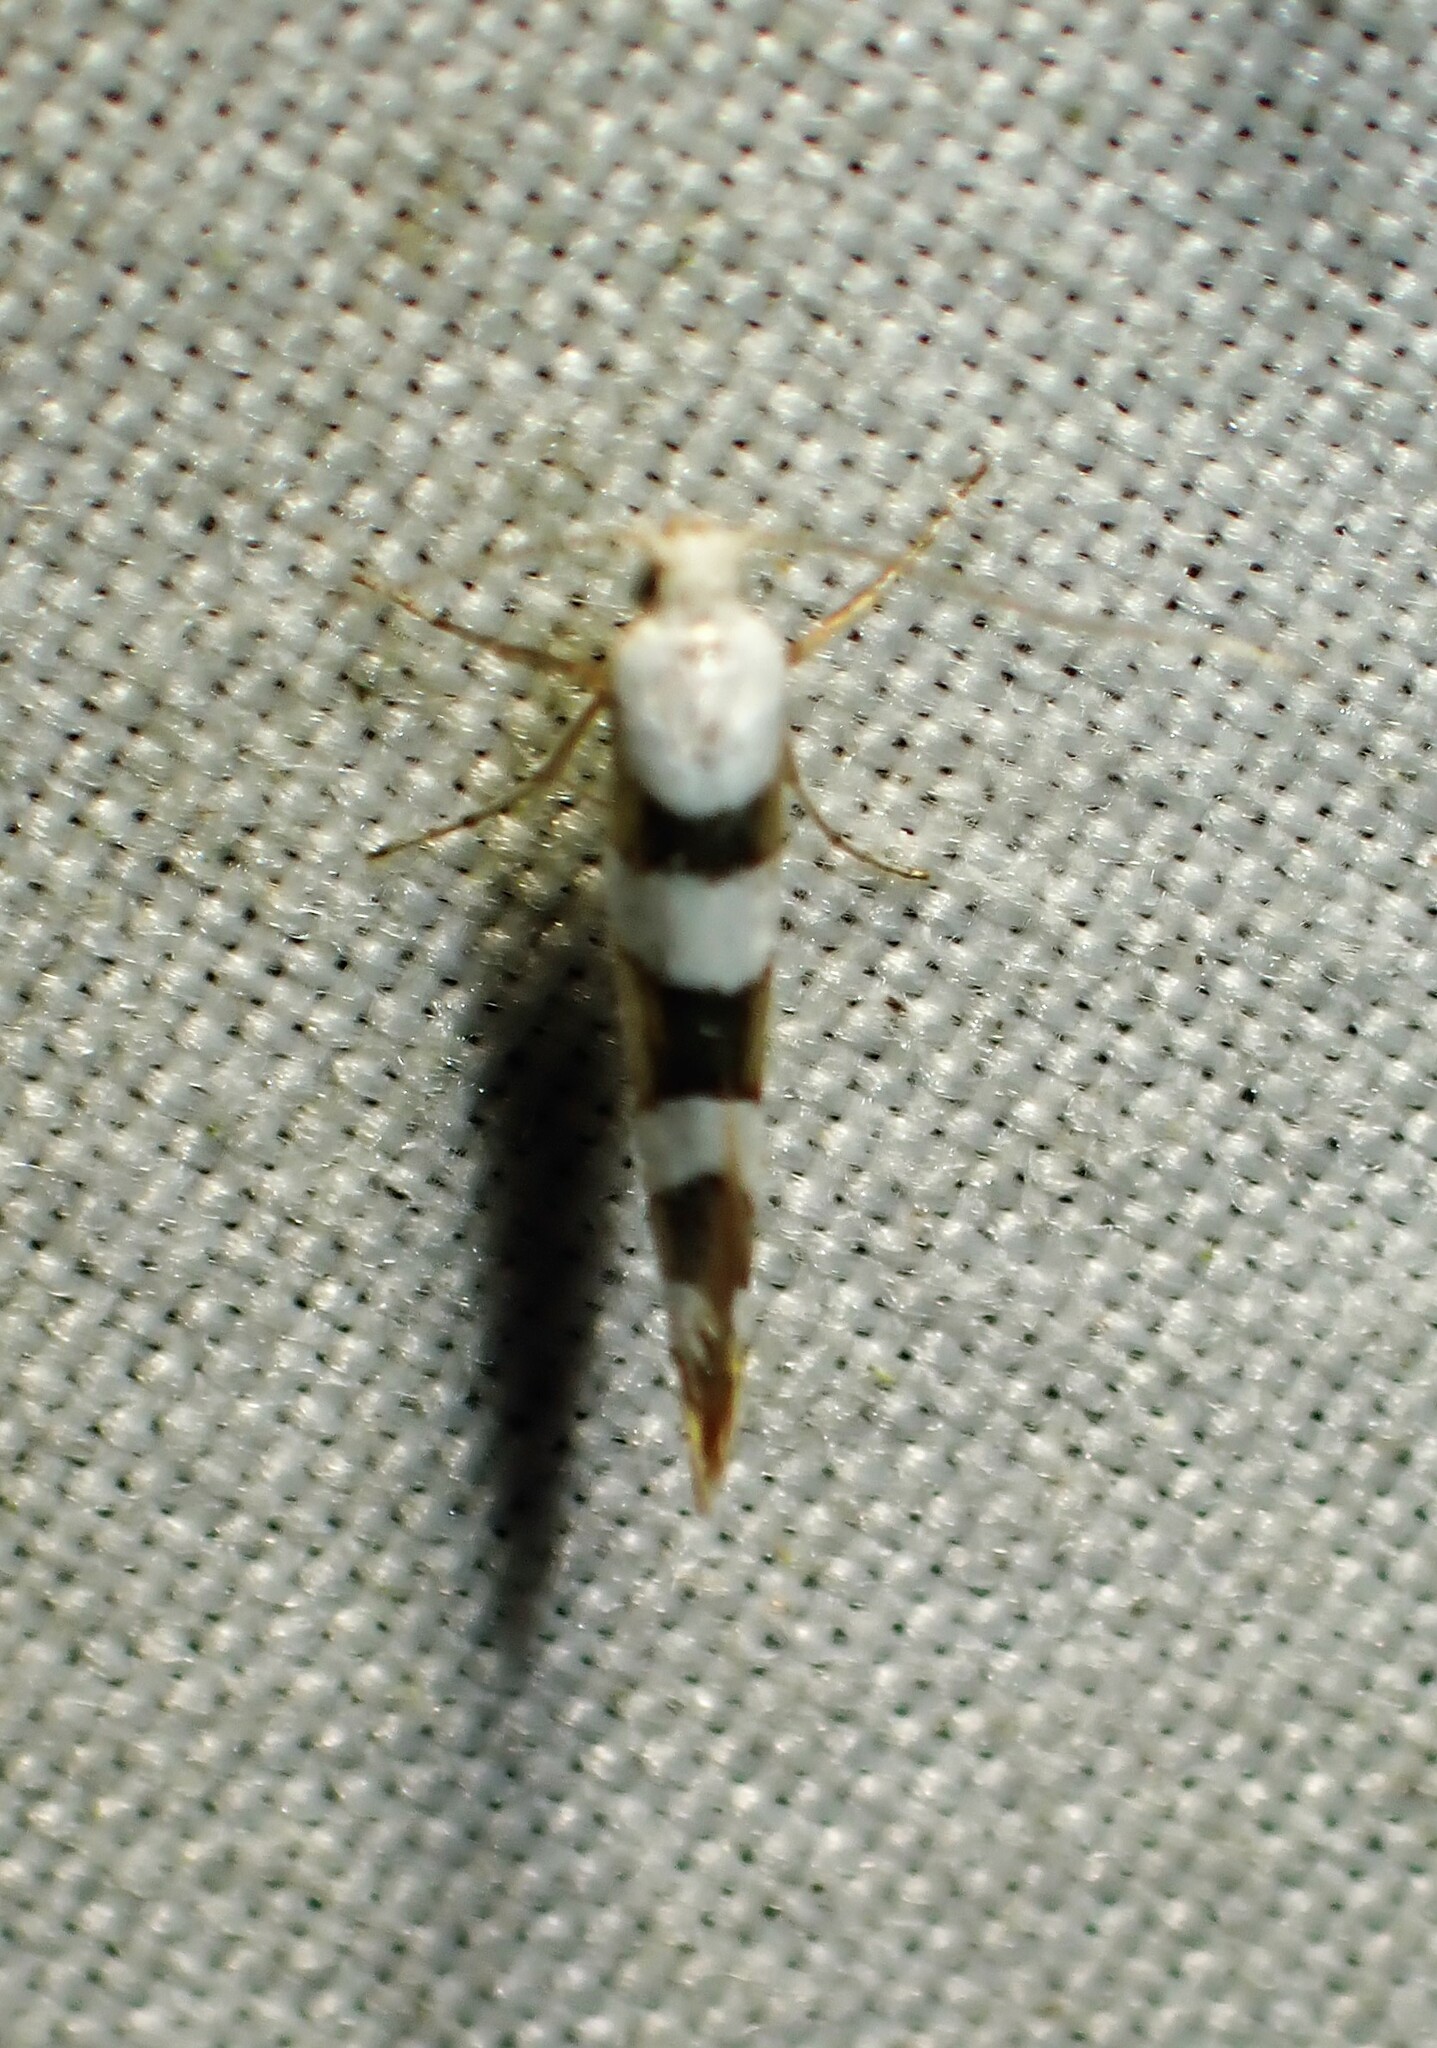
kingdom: Animalia
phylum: Arthropoda
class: Insecta
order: Lepidoptera
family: Argyresthiidae
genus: Argyresthia
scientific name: Argyresthia calliphanes
